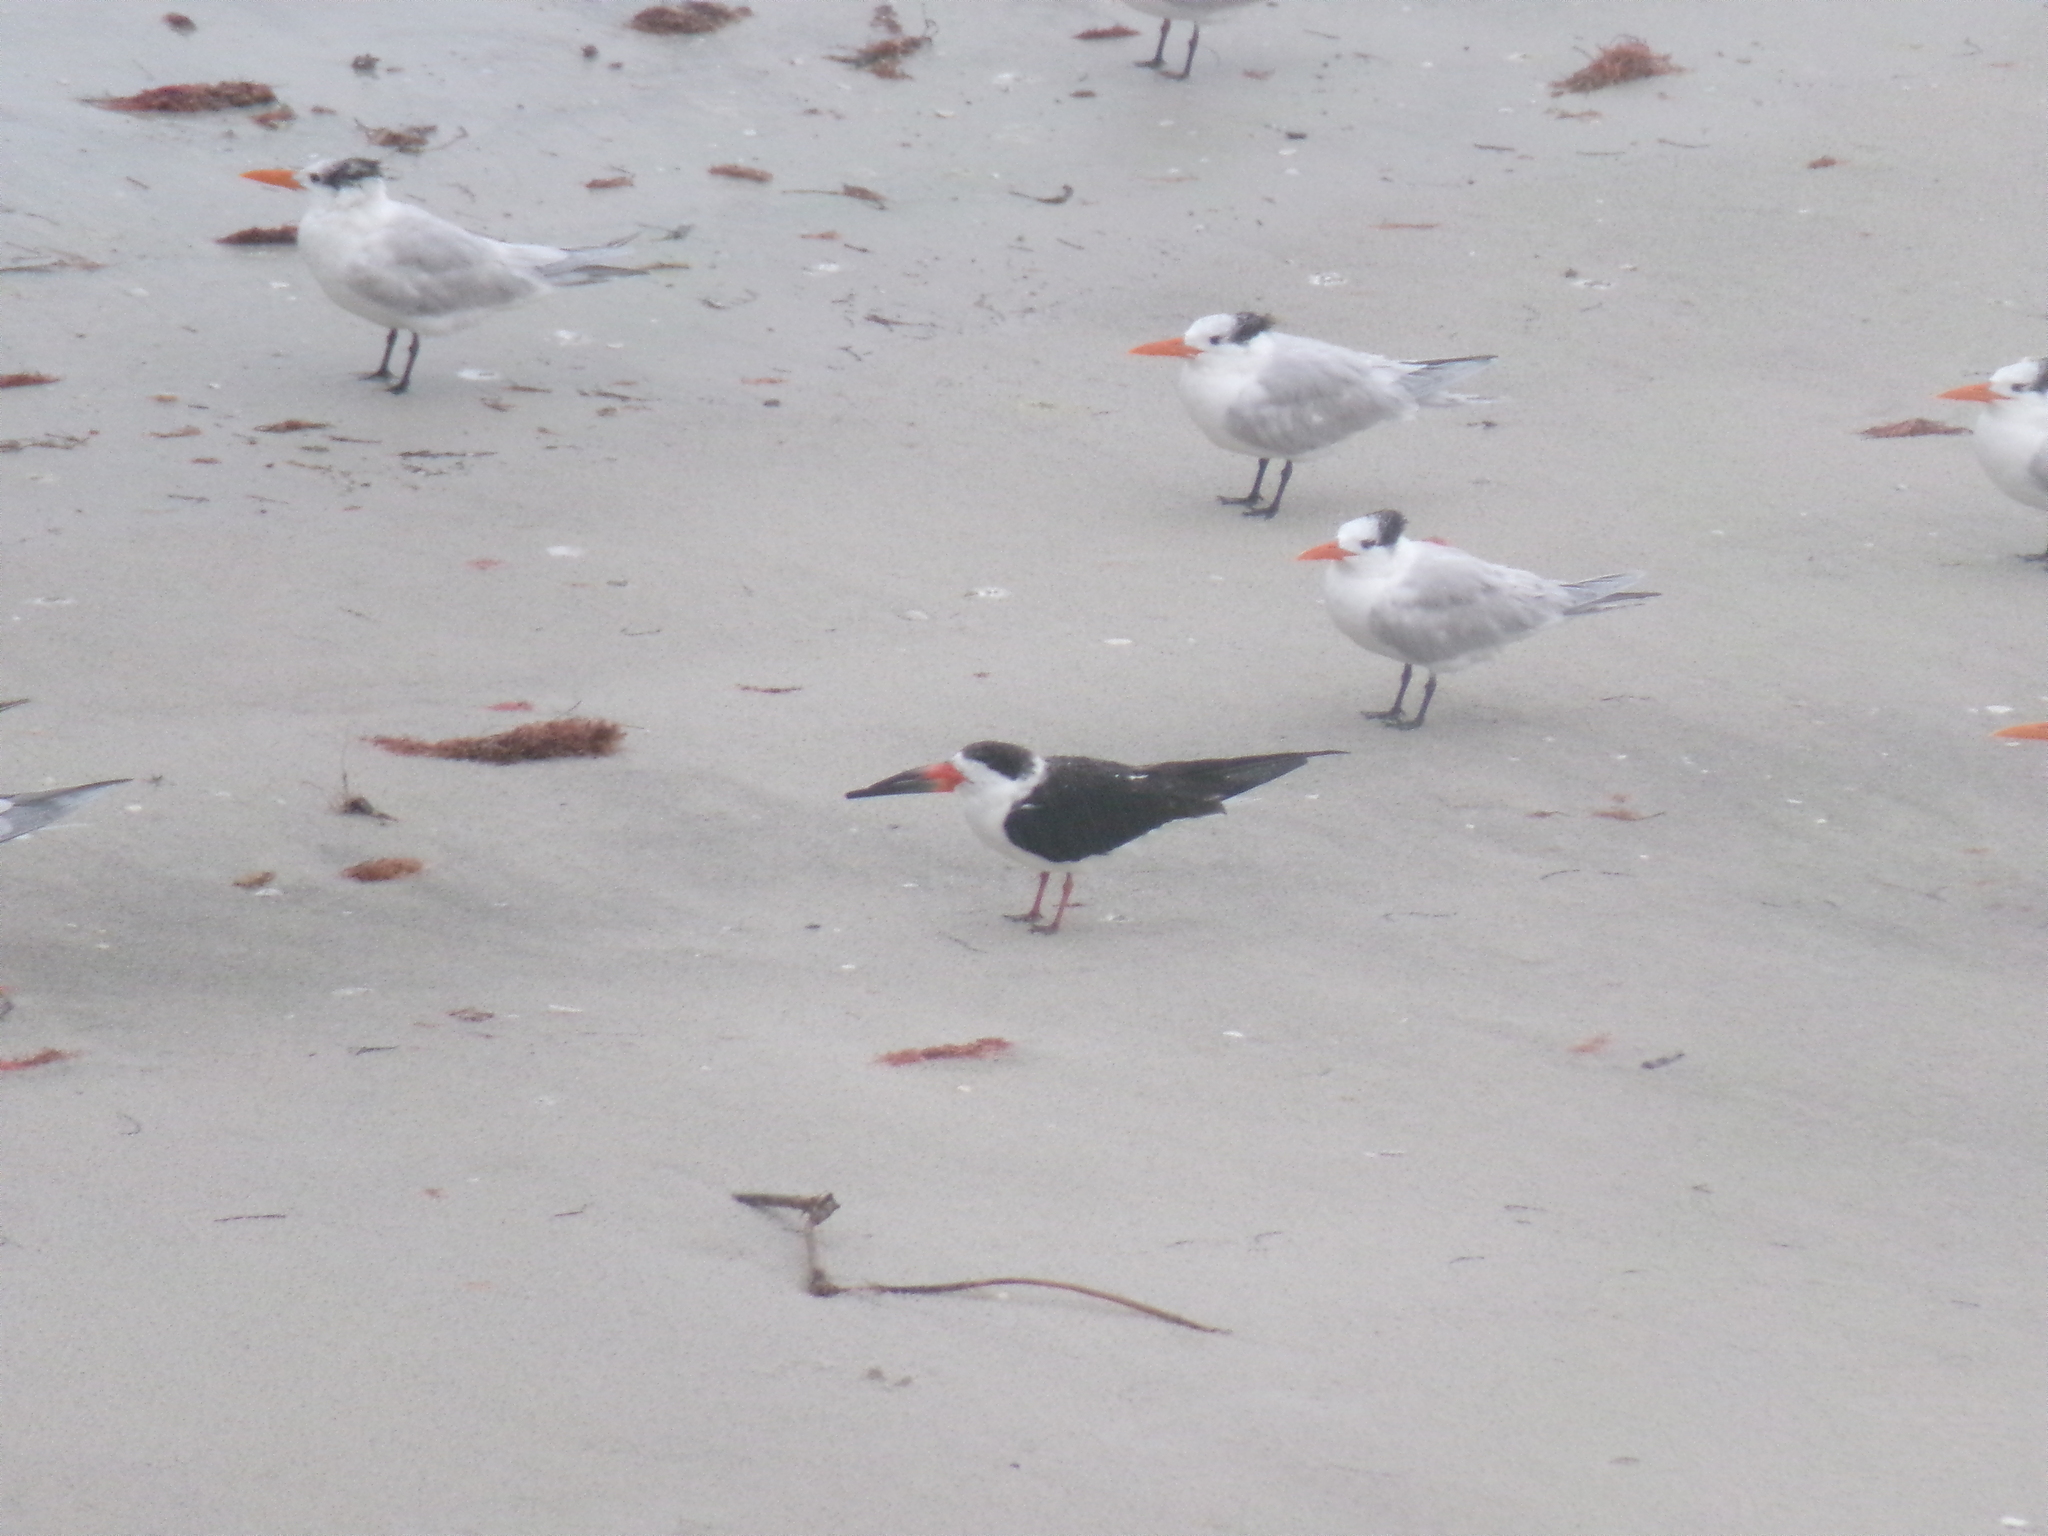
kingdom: Animalia
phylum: Chordata
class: Aves
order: Charadriiformes
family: Laridae
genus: Rynchops
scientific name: Rynchops niger
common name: Black skimmer
